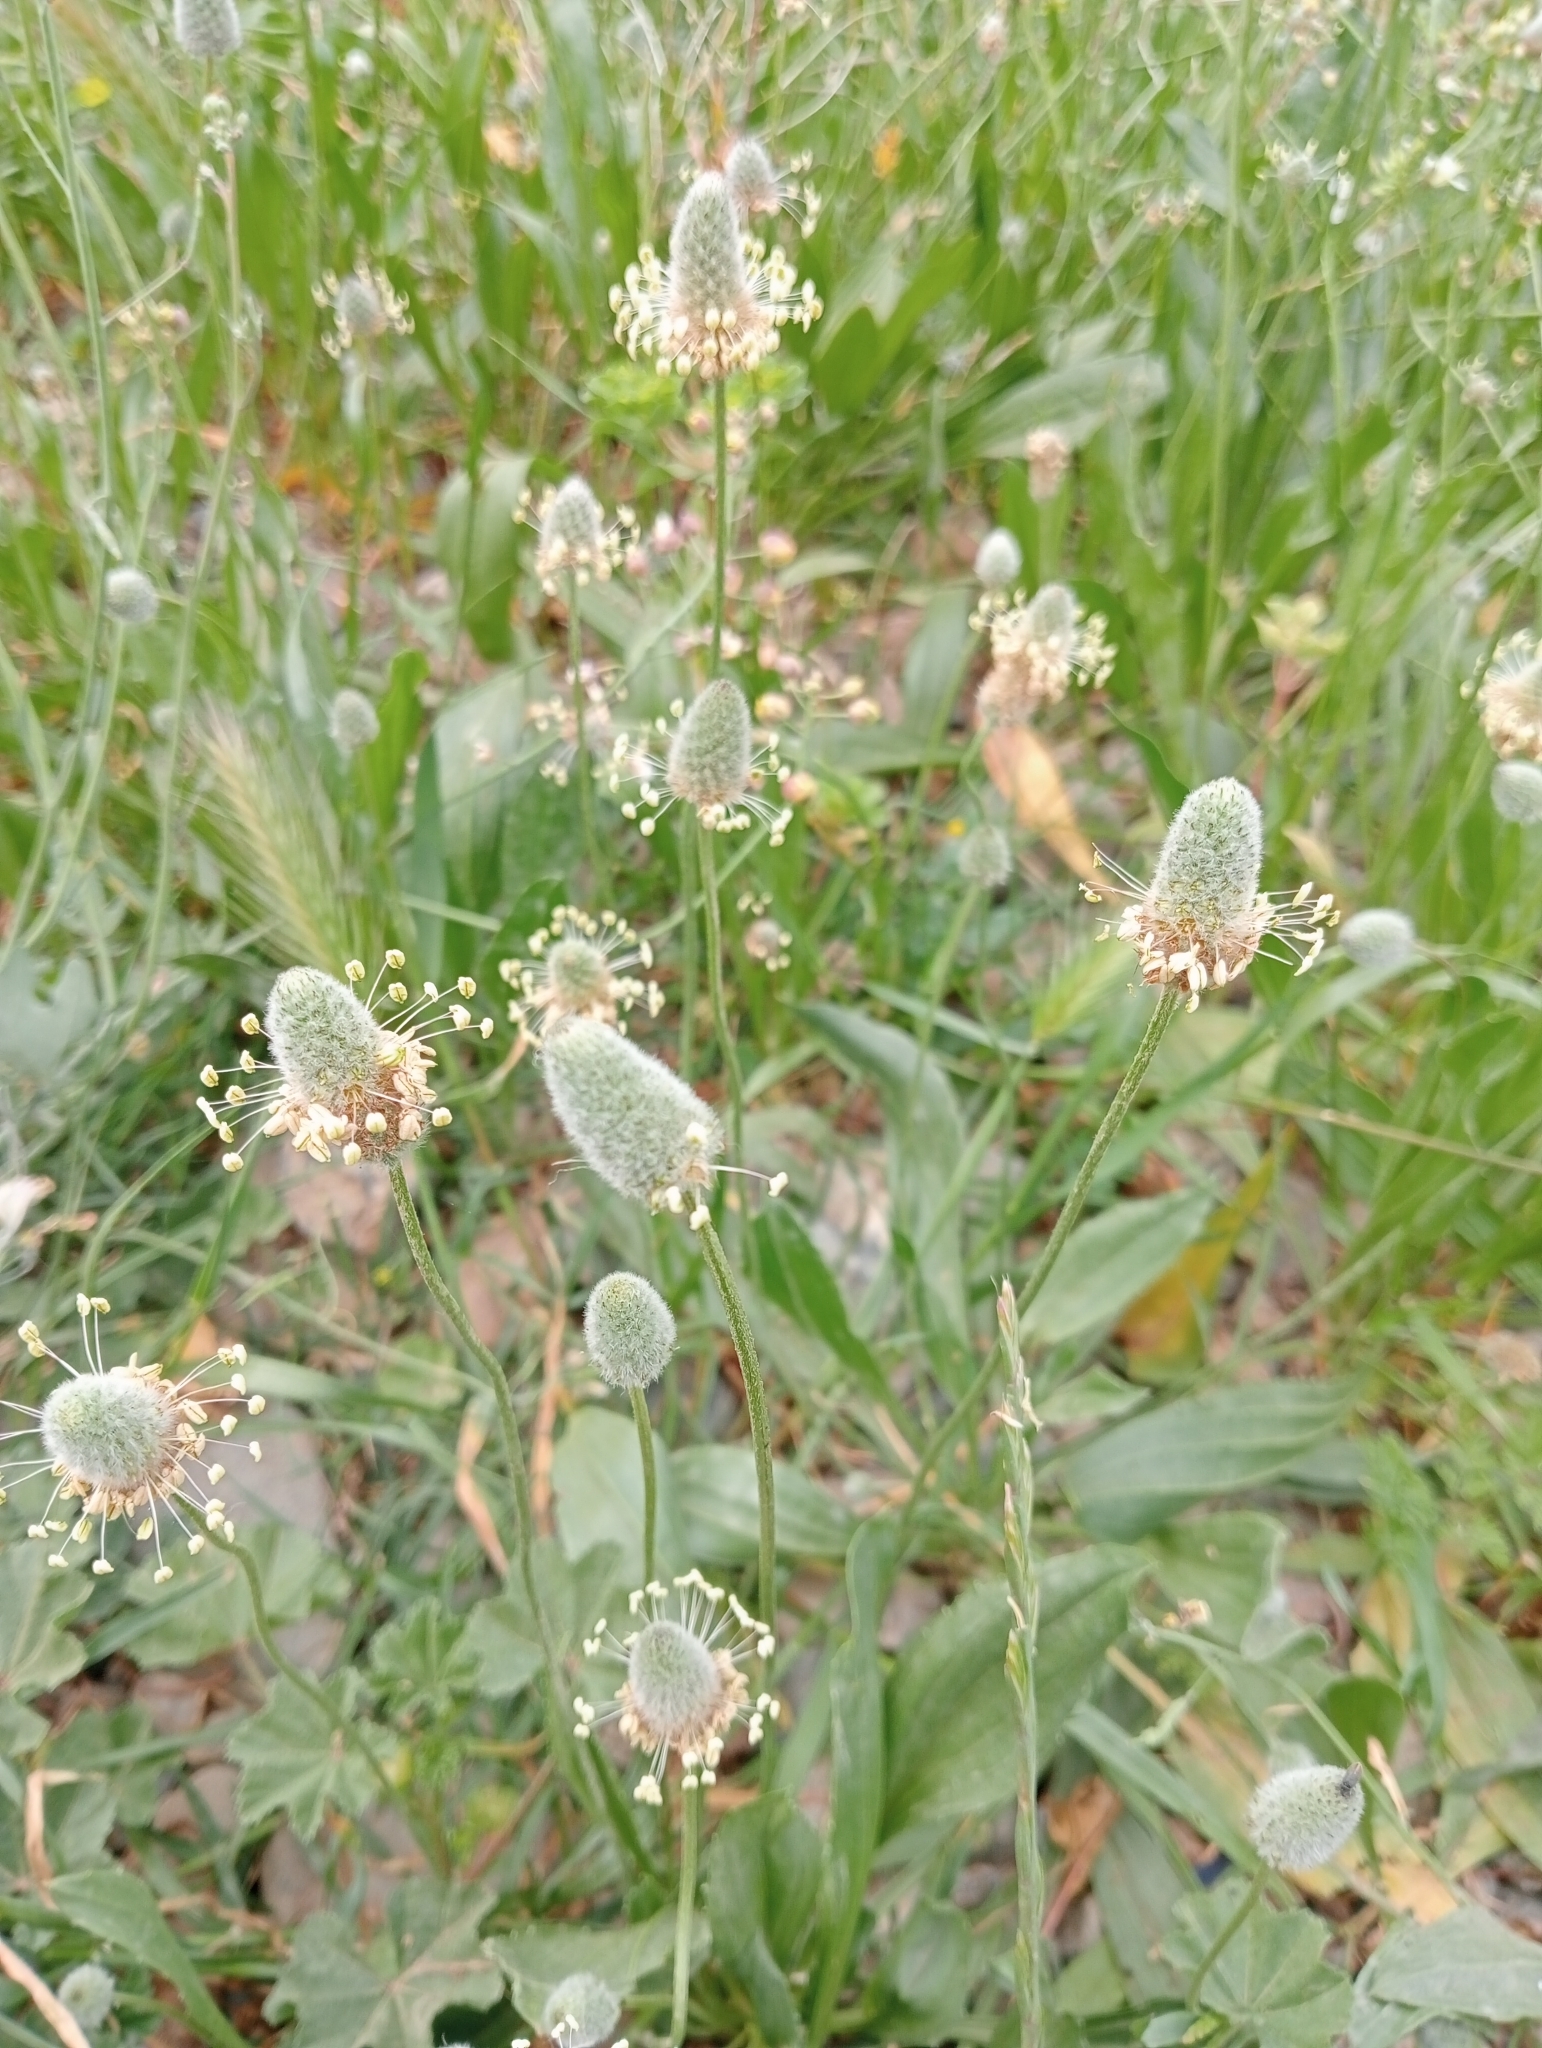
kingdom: Plantae
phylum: Tracheophyta
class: Magnoliopsida
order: Lamiales
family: Plantaginaceae
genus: Plantago
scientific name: Plantago lagopus
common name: Hare-foot plantain
